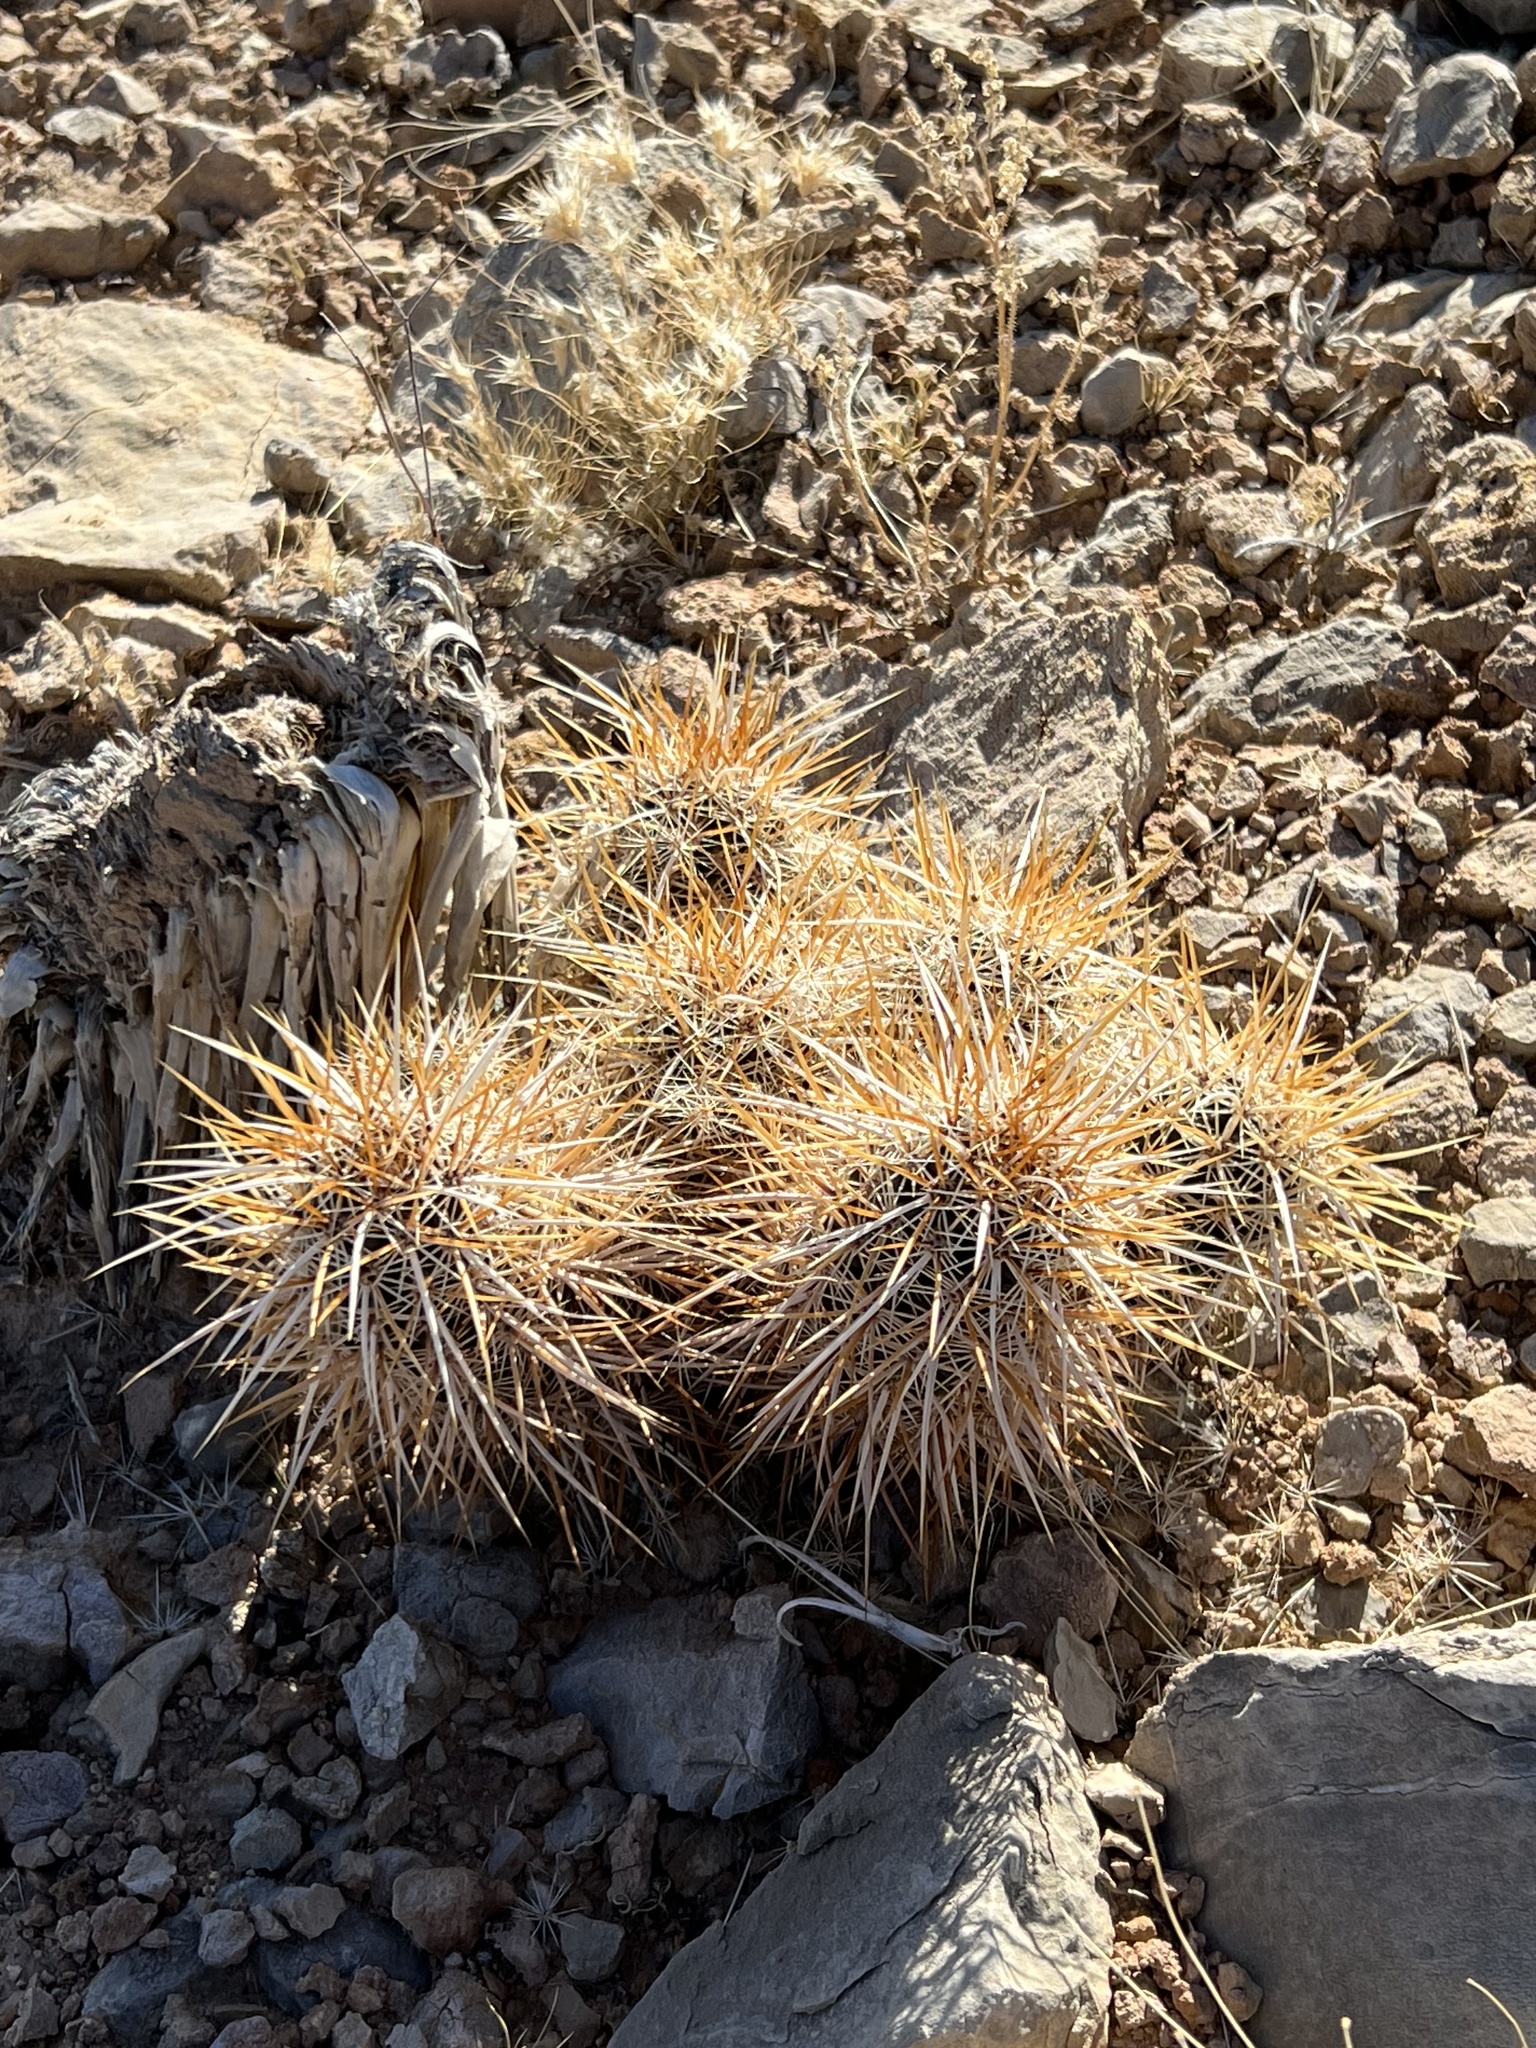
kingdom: Plantae
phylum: Tracheophyta
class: Magnoliopsida
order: Caryophyllales
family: Cactaceae
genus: Echinocereus
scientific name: Echinocereus engelmannii
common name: Engelmann's hedgehog cactus
